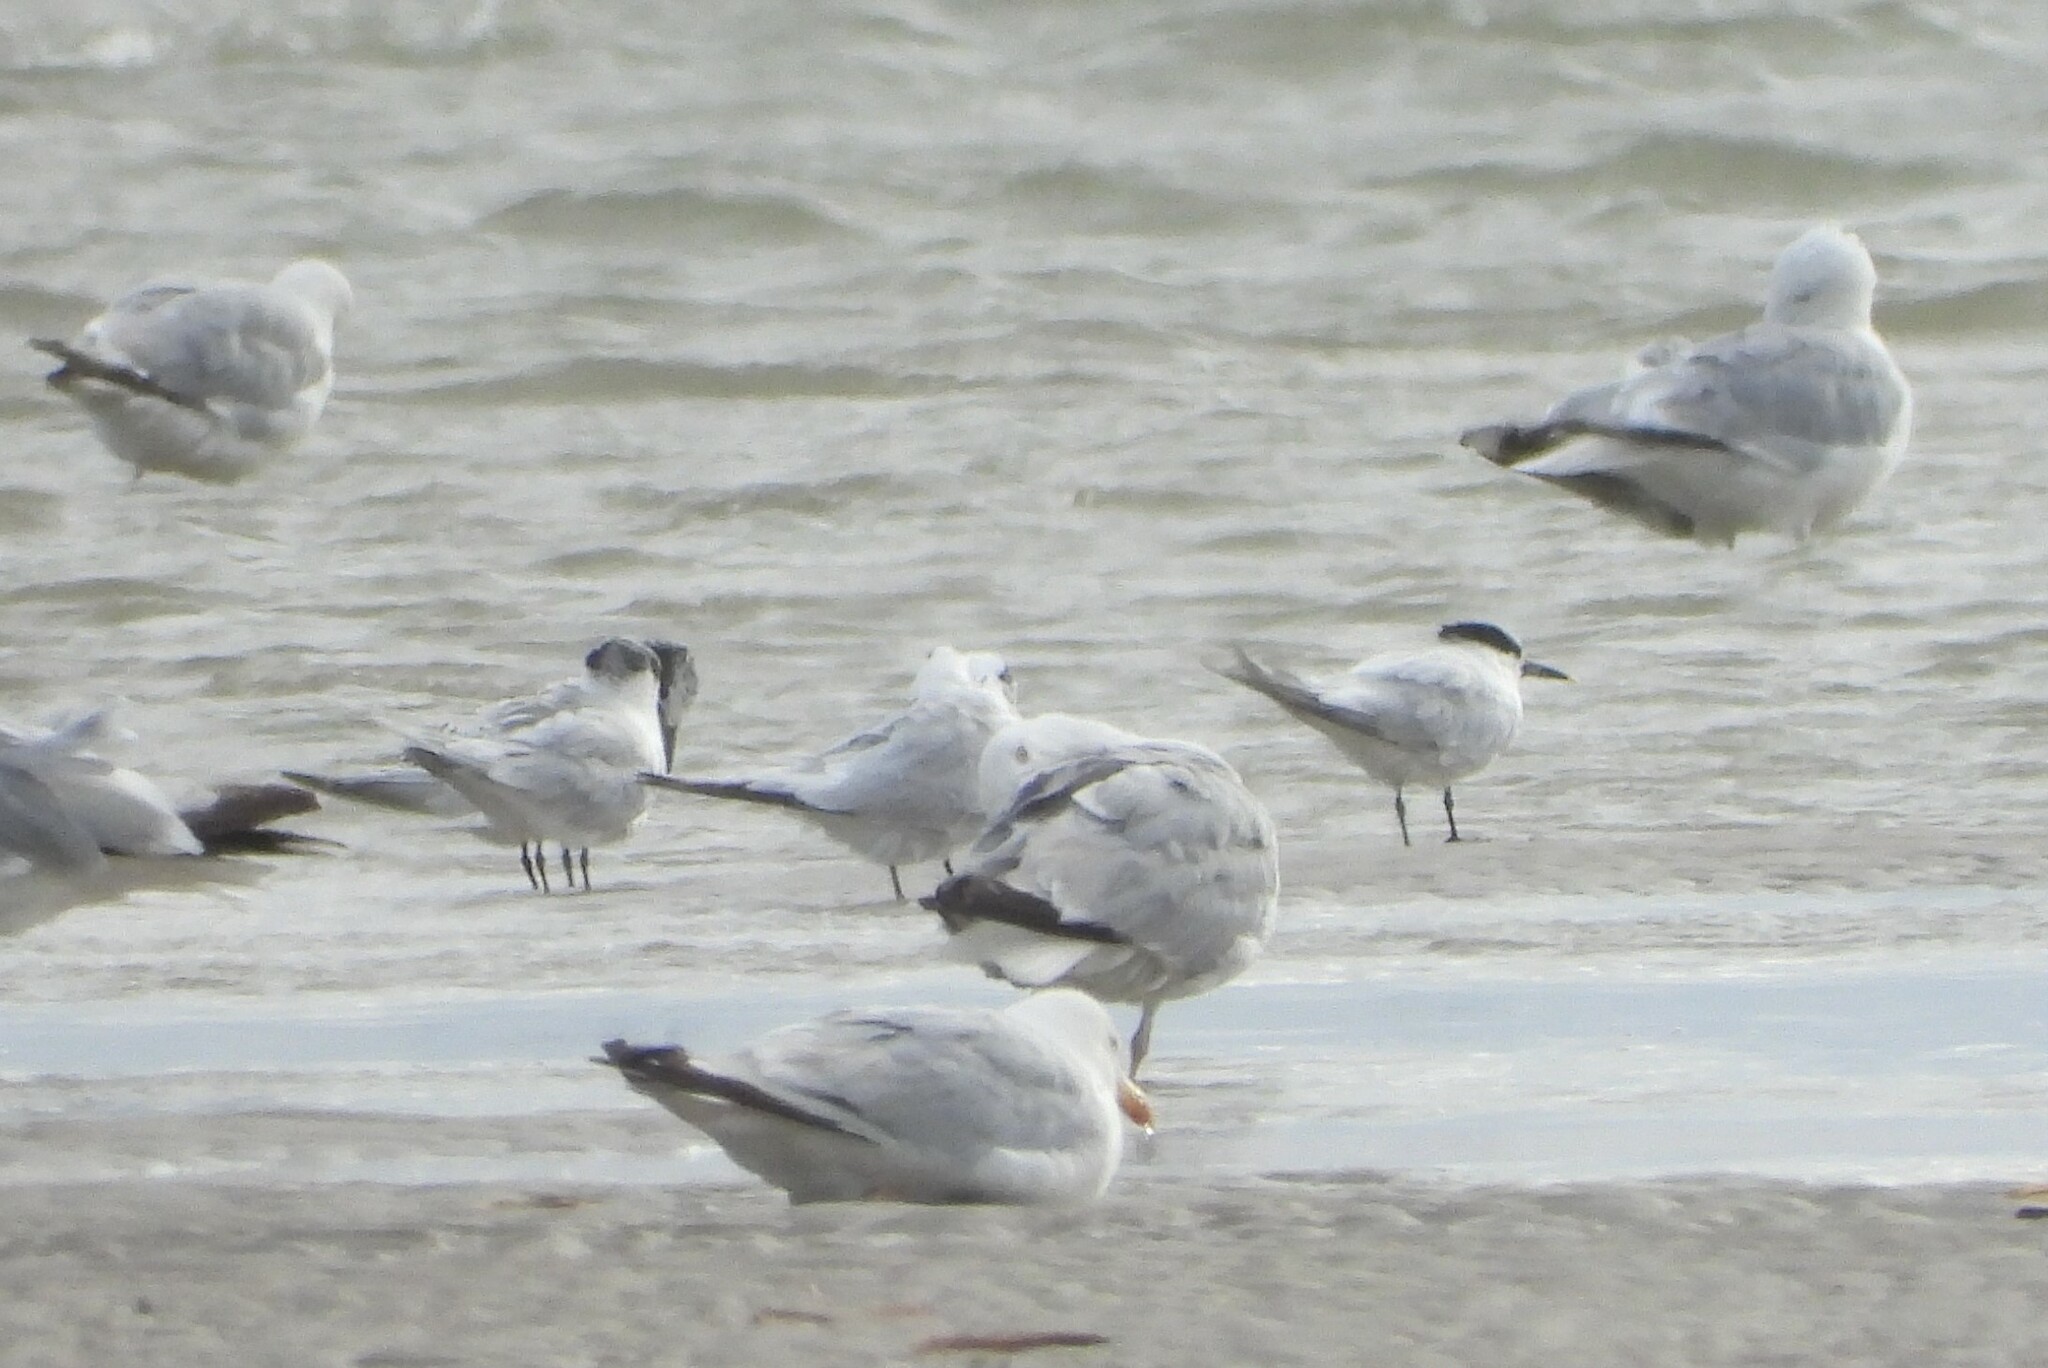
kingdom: Animalia
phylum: Chordata
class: Aves
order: Charadriiformes
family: Laridae
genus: Thalasseus
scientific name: Thalasseus sandvicensis
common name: Sandwich tern
